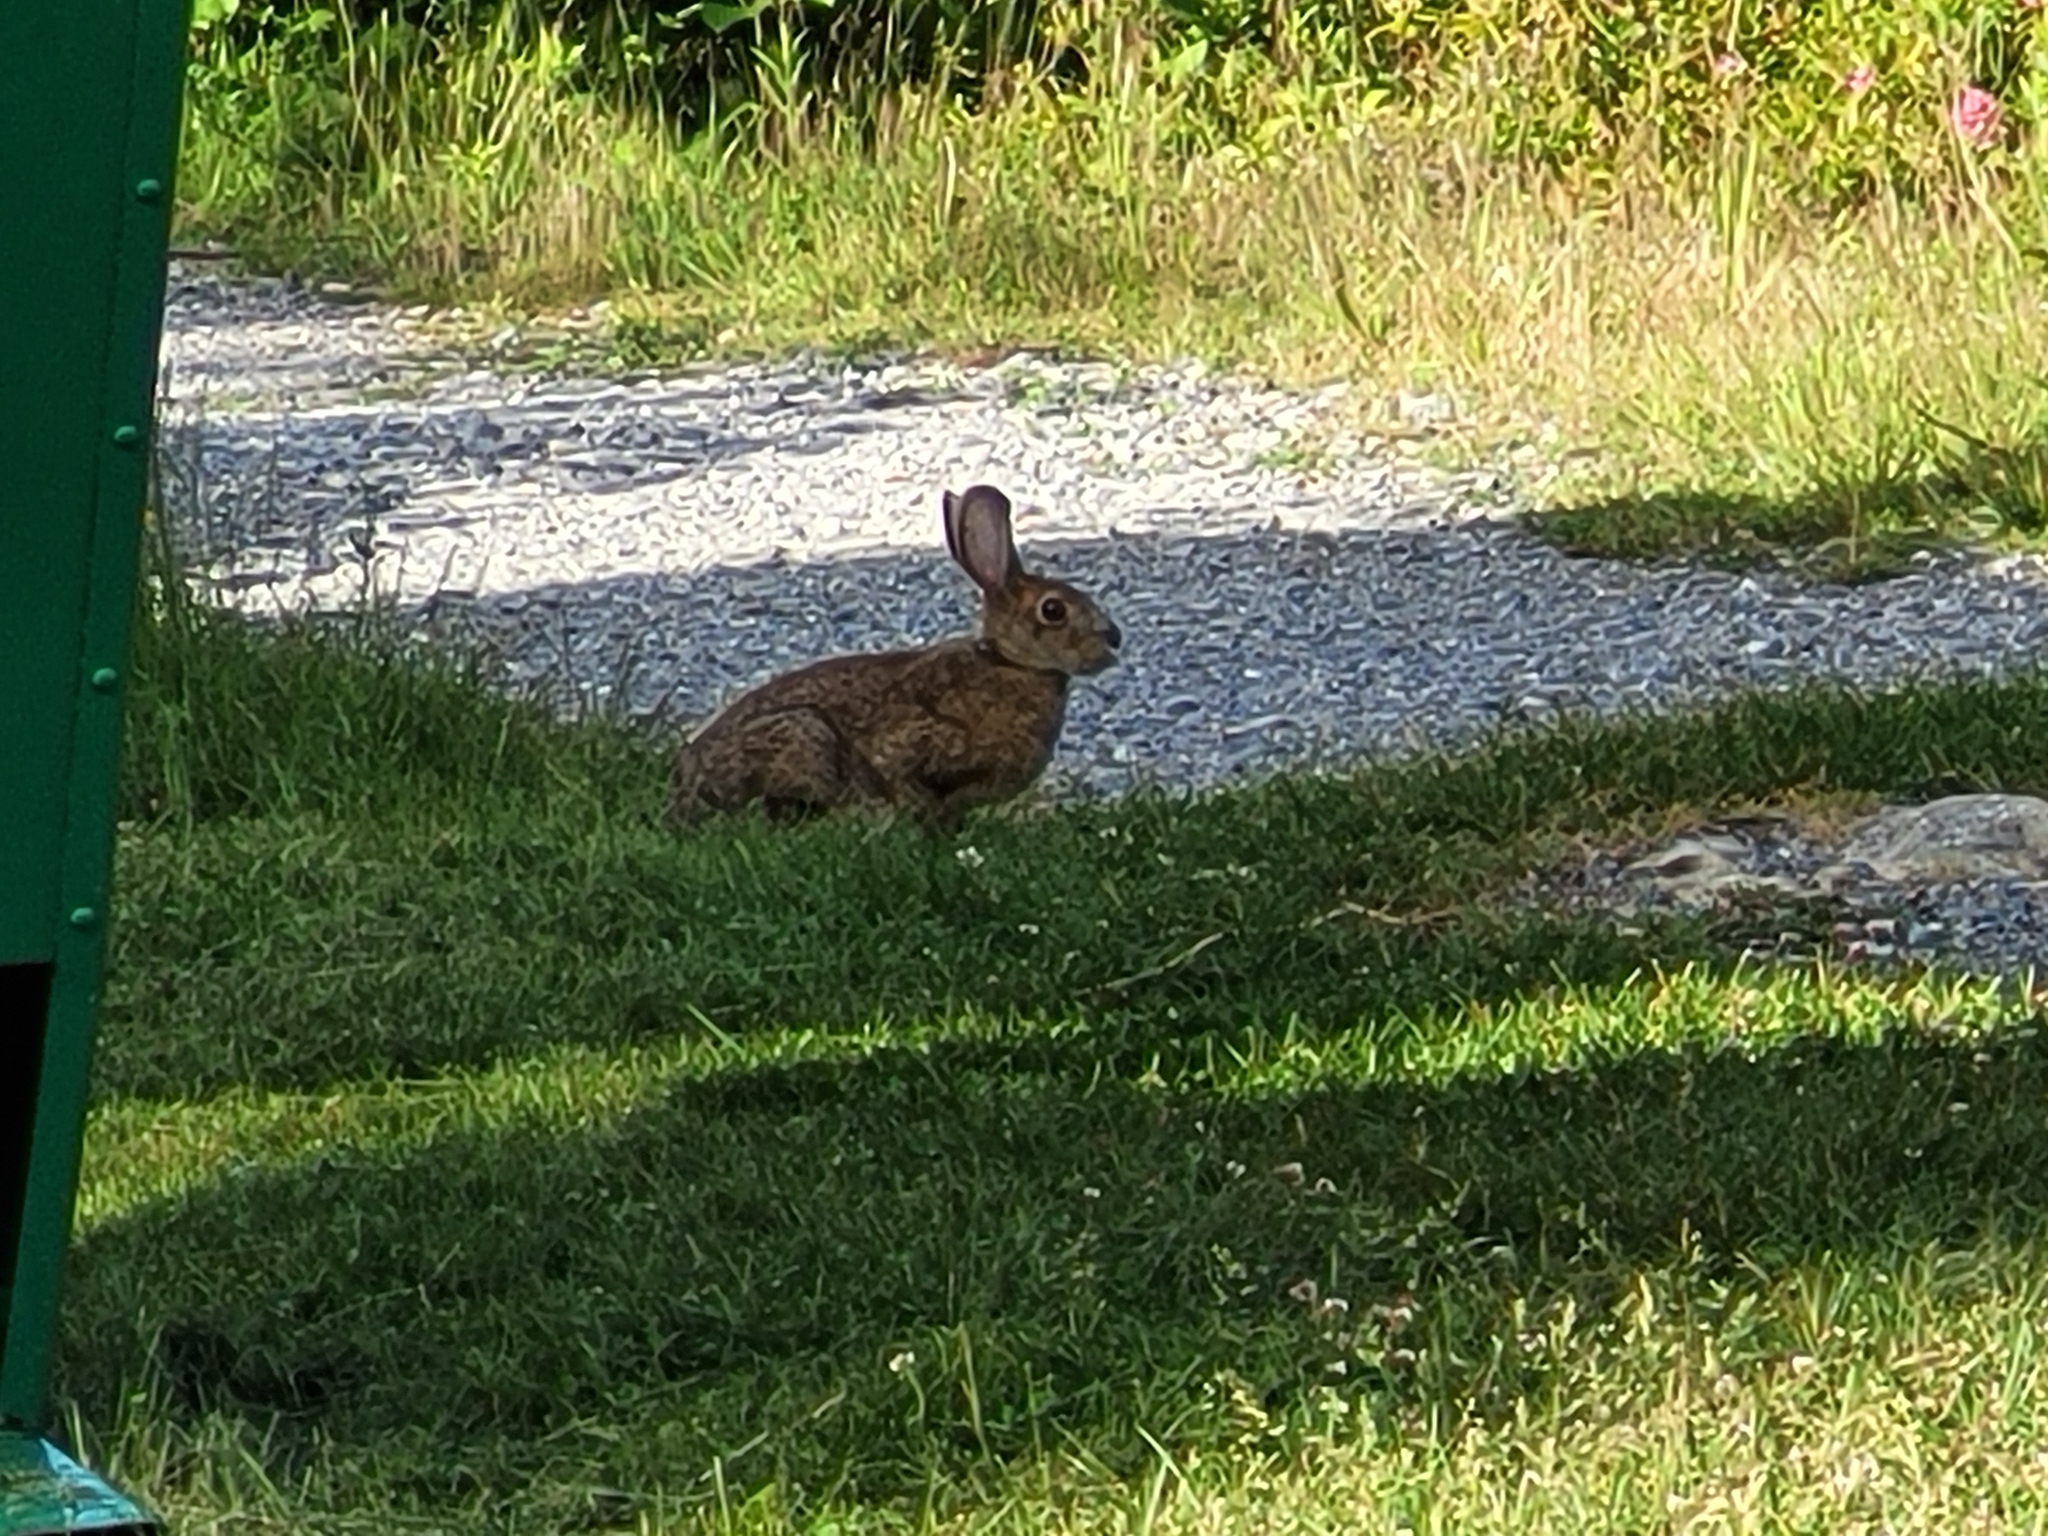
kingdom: Animalia
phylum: Chordata
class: Mammalia
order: Lagomorpha
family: Leporidae
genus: Lepus
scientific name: Lepus americanus
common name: Snowshoe hare
